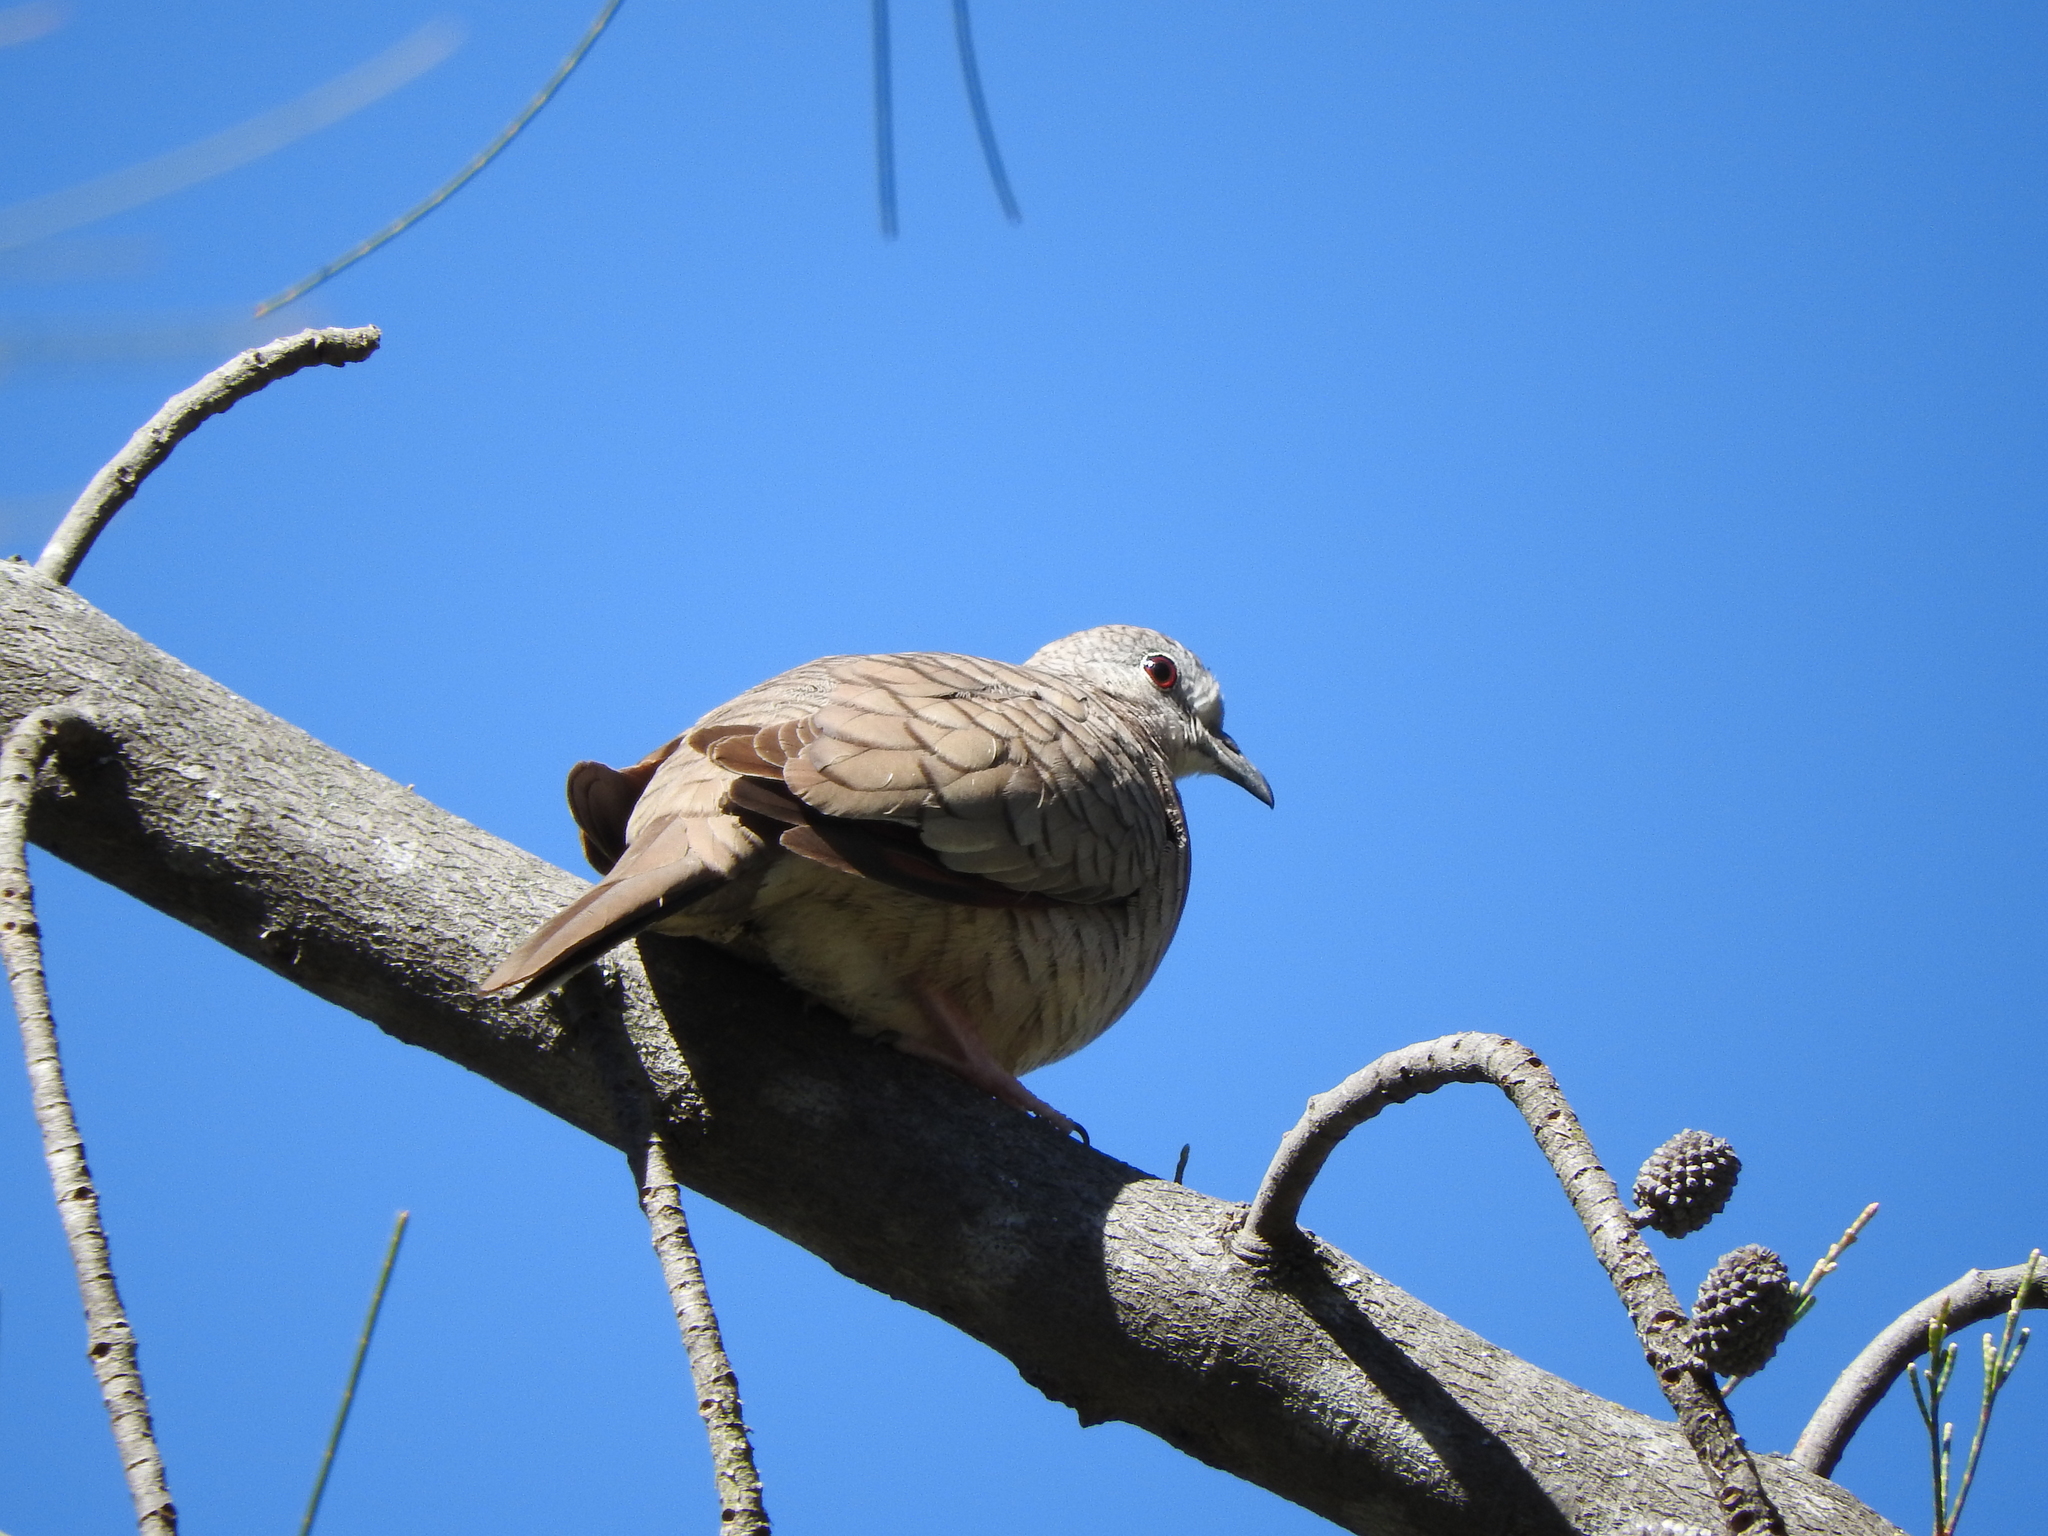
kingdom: Animalia
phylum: Chordata
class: Aves
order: Columbiformes
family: Columbidae
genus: Columbina
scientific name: Columbina inca
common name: Inca dove
